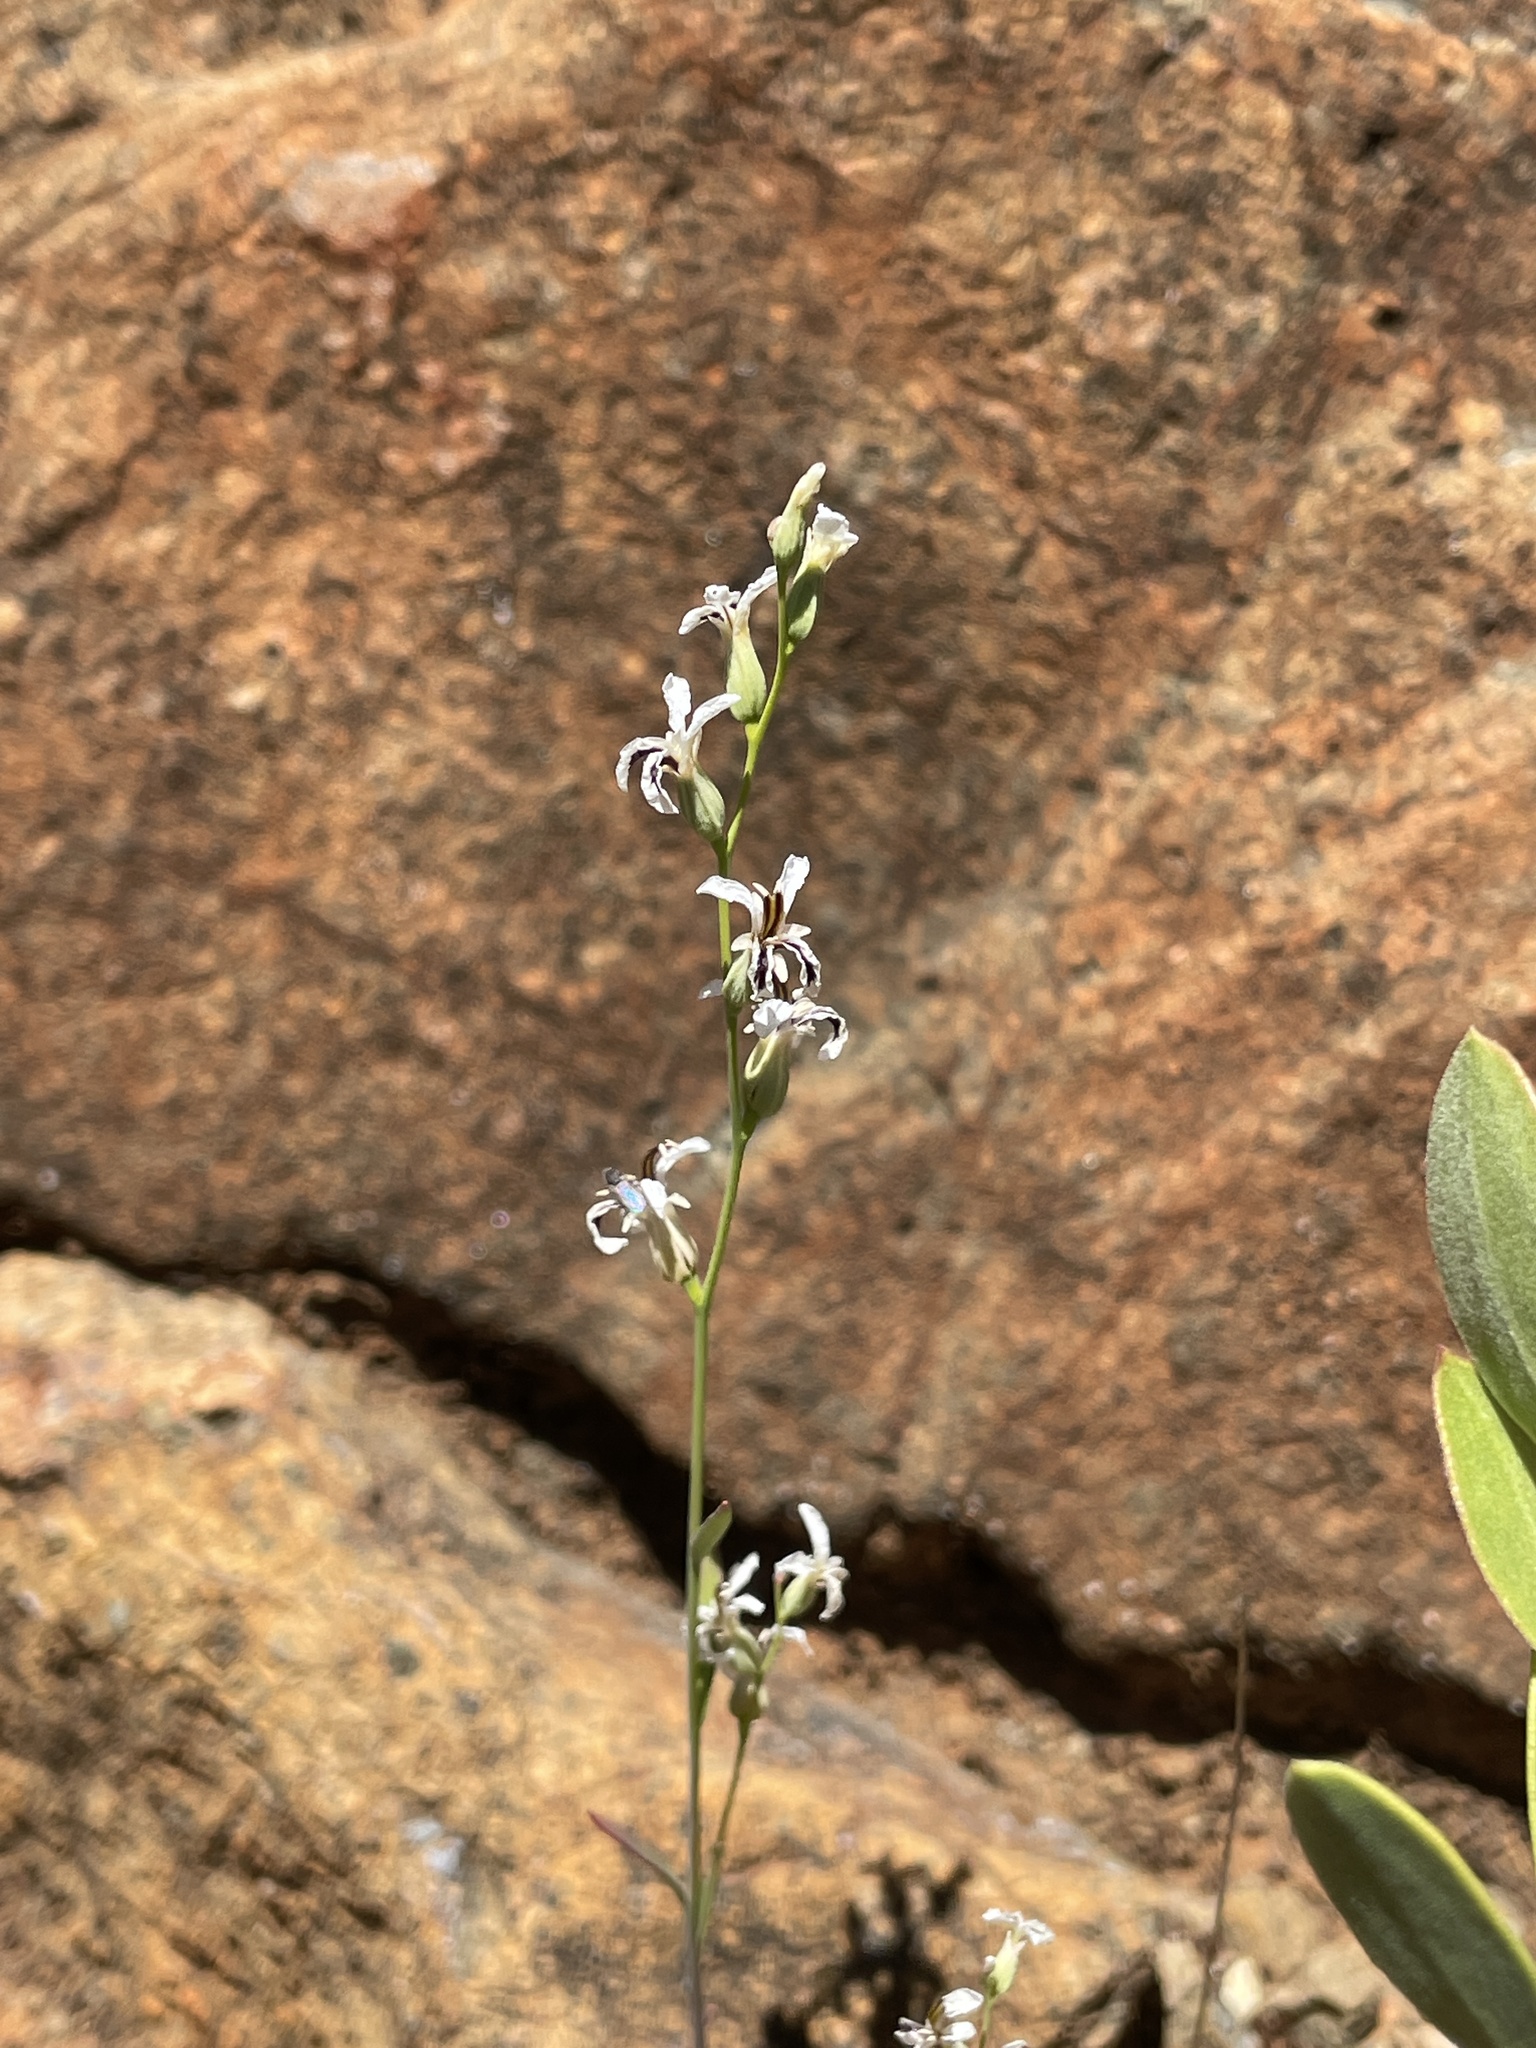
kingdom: Plantae
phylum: Tracheophyta
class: Magnoliopsida
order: Brassicales
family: Brassicaceae
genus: Streptanthus
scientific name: Streptanthus barbiger
